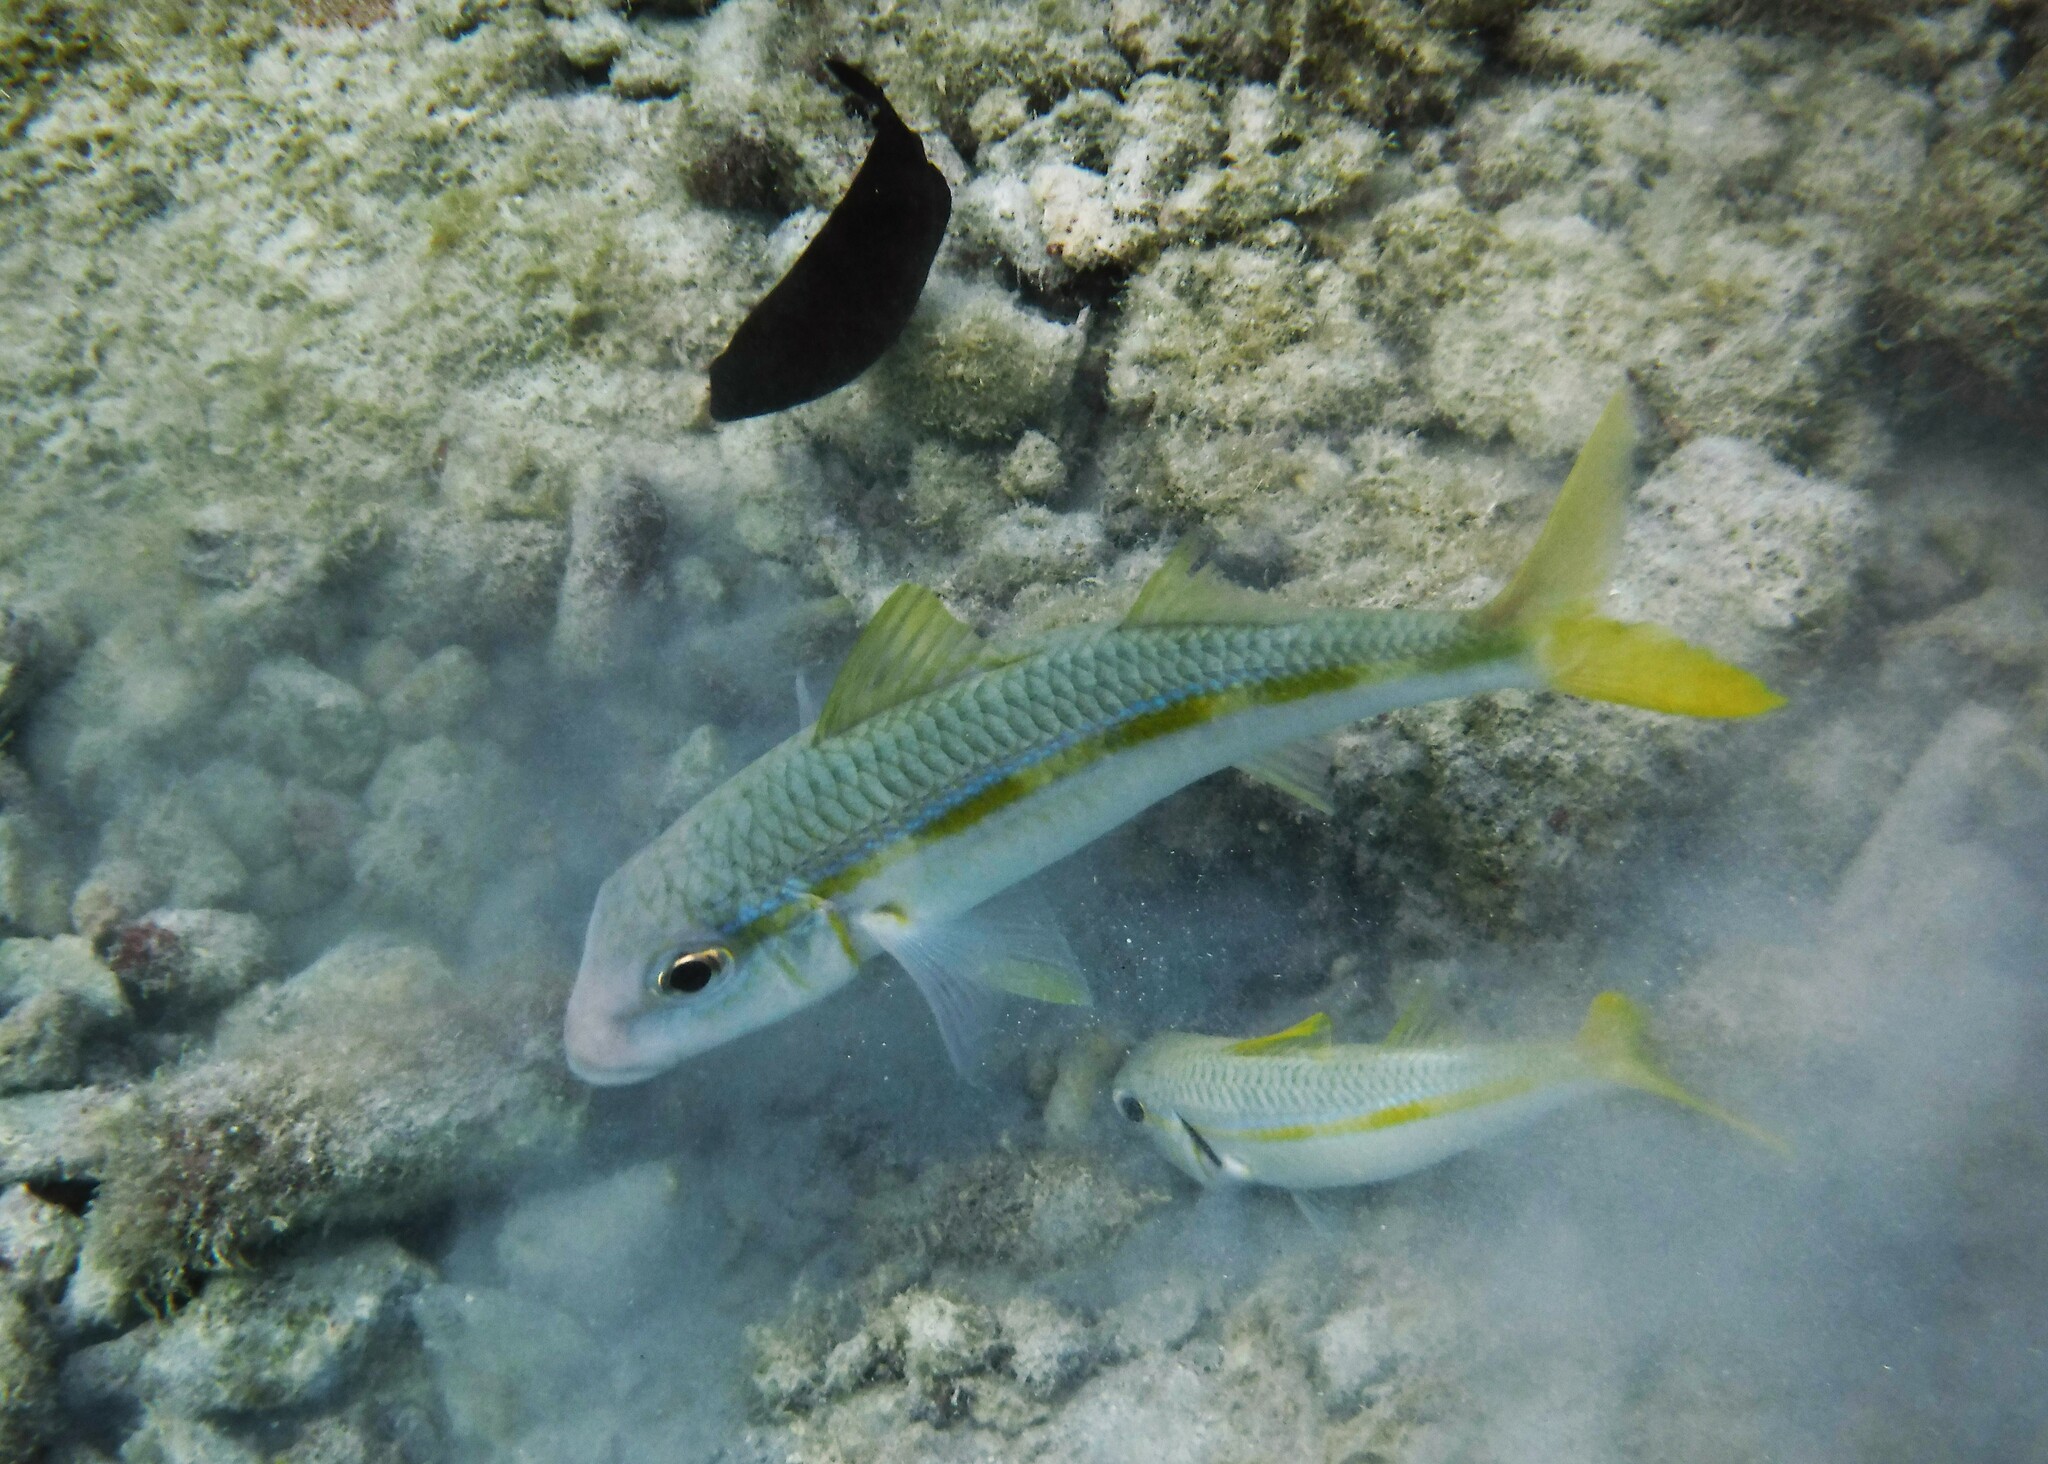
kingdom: Animalia
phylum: Chordata
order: Perciformes
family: Mullidae
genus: Mulloidichthys
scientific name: Mulloidichthys martinicus
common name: Yellow goatfish
